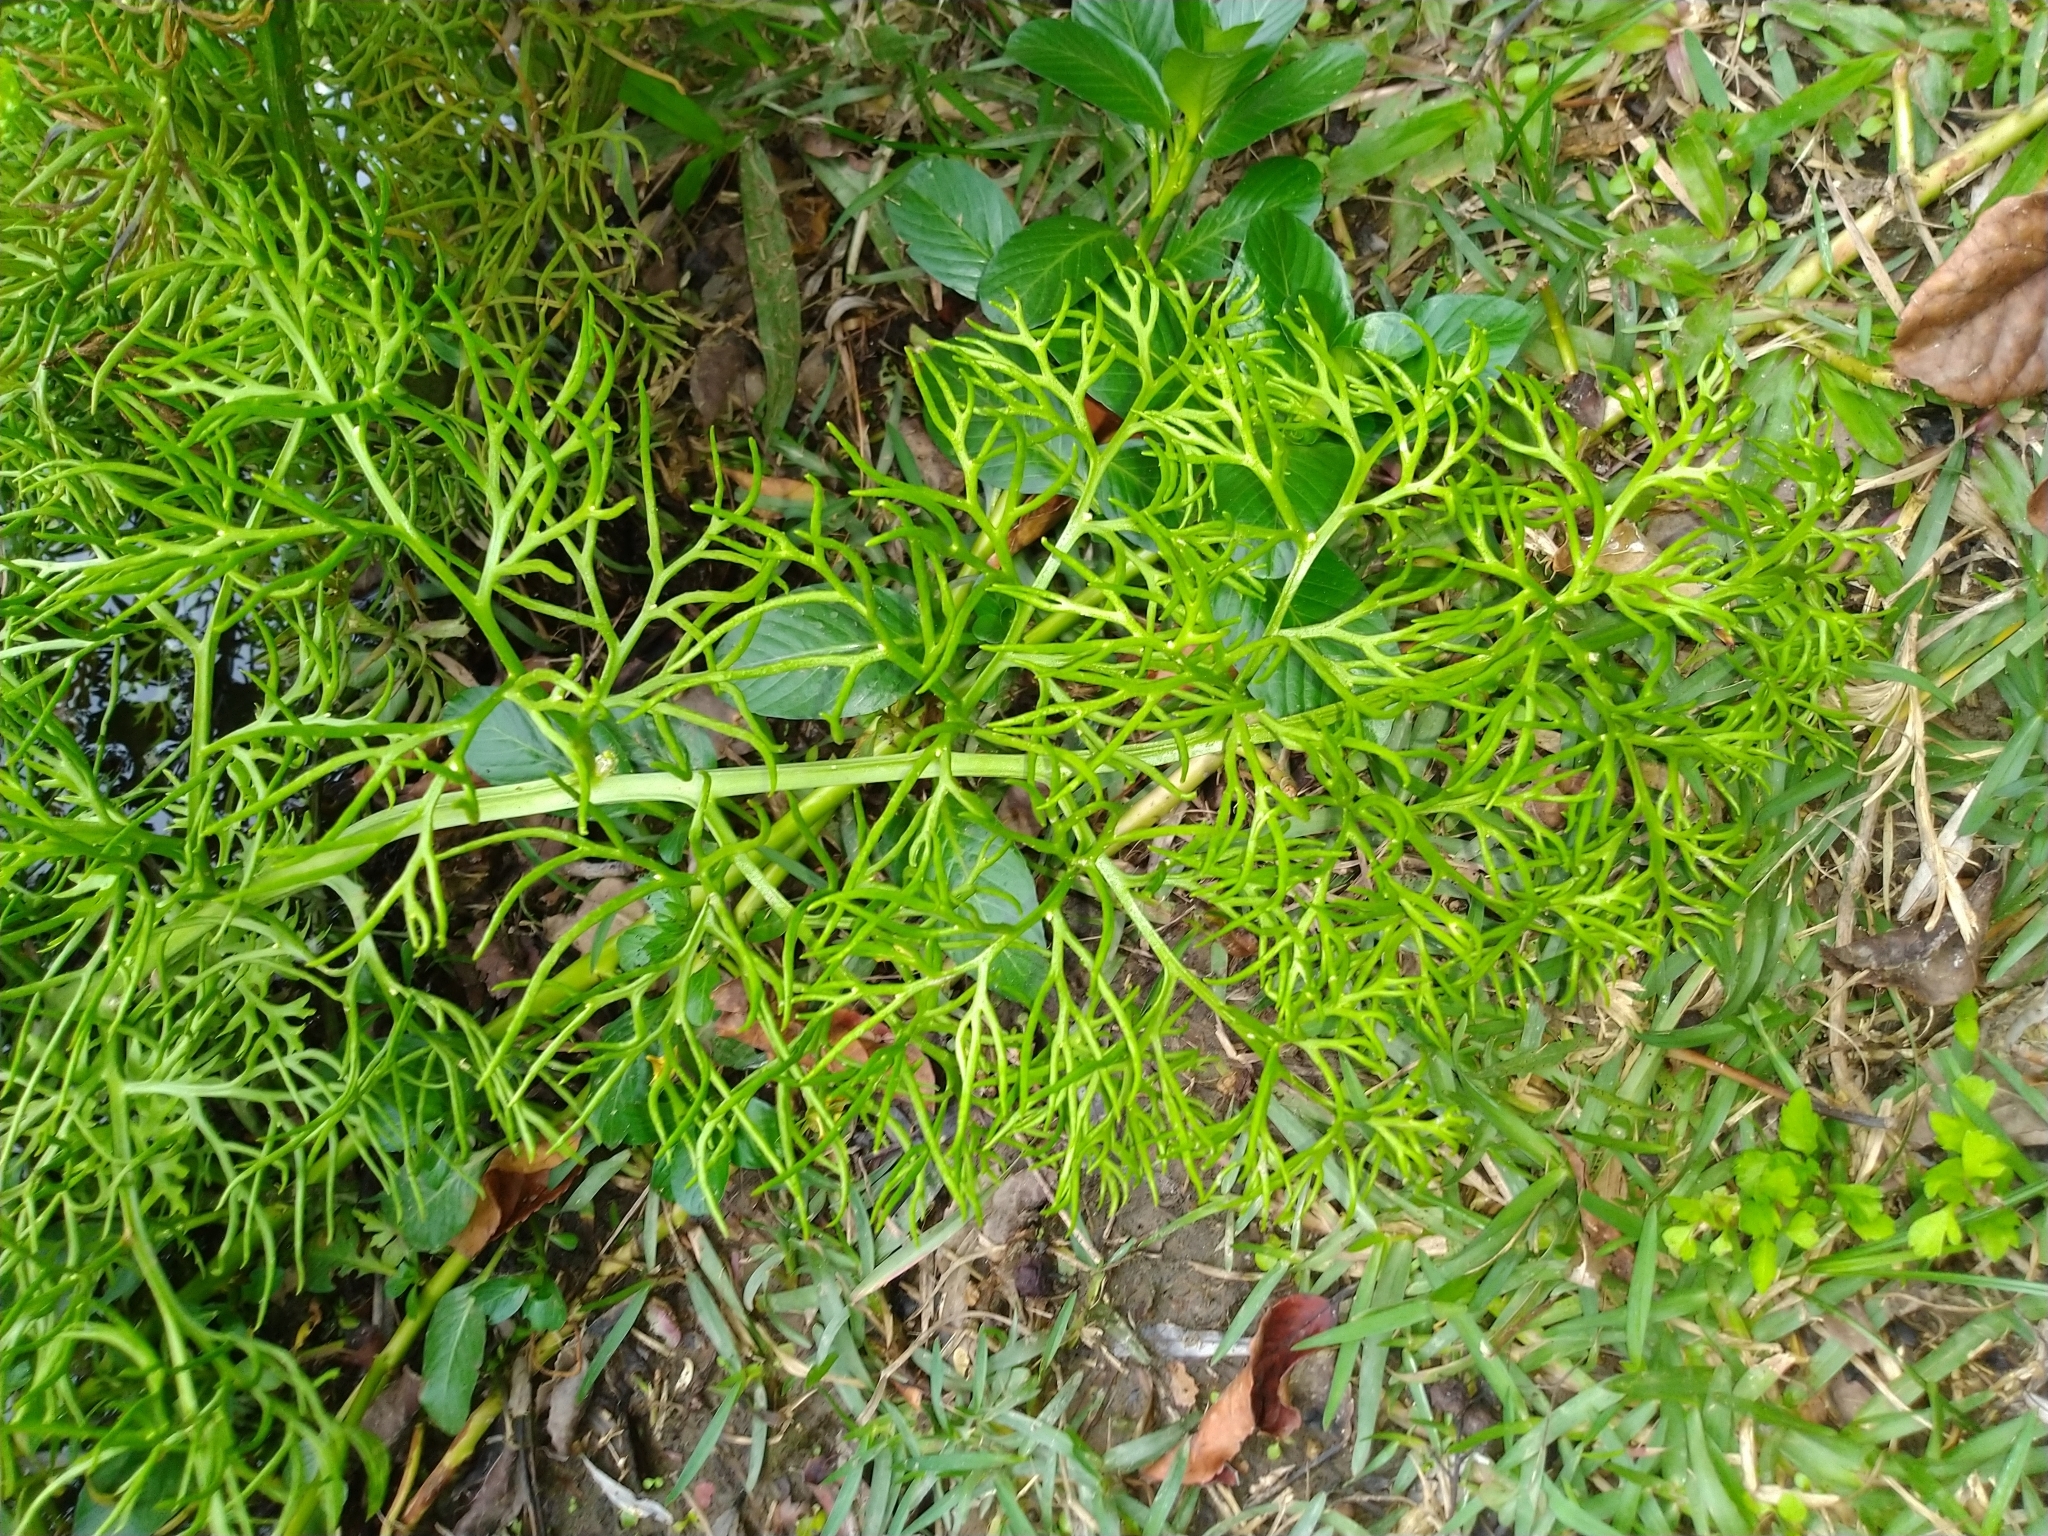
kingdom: Plantae
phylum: Tracheophyta
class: Polypodiopsida
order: Polypodiales
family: Pteridaceae
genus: Ceratopteris
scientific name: Ceratopteris thalictroides
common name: Water fern
